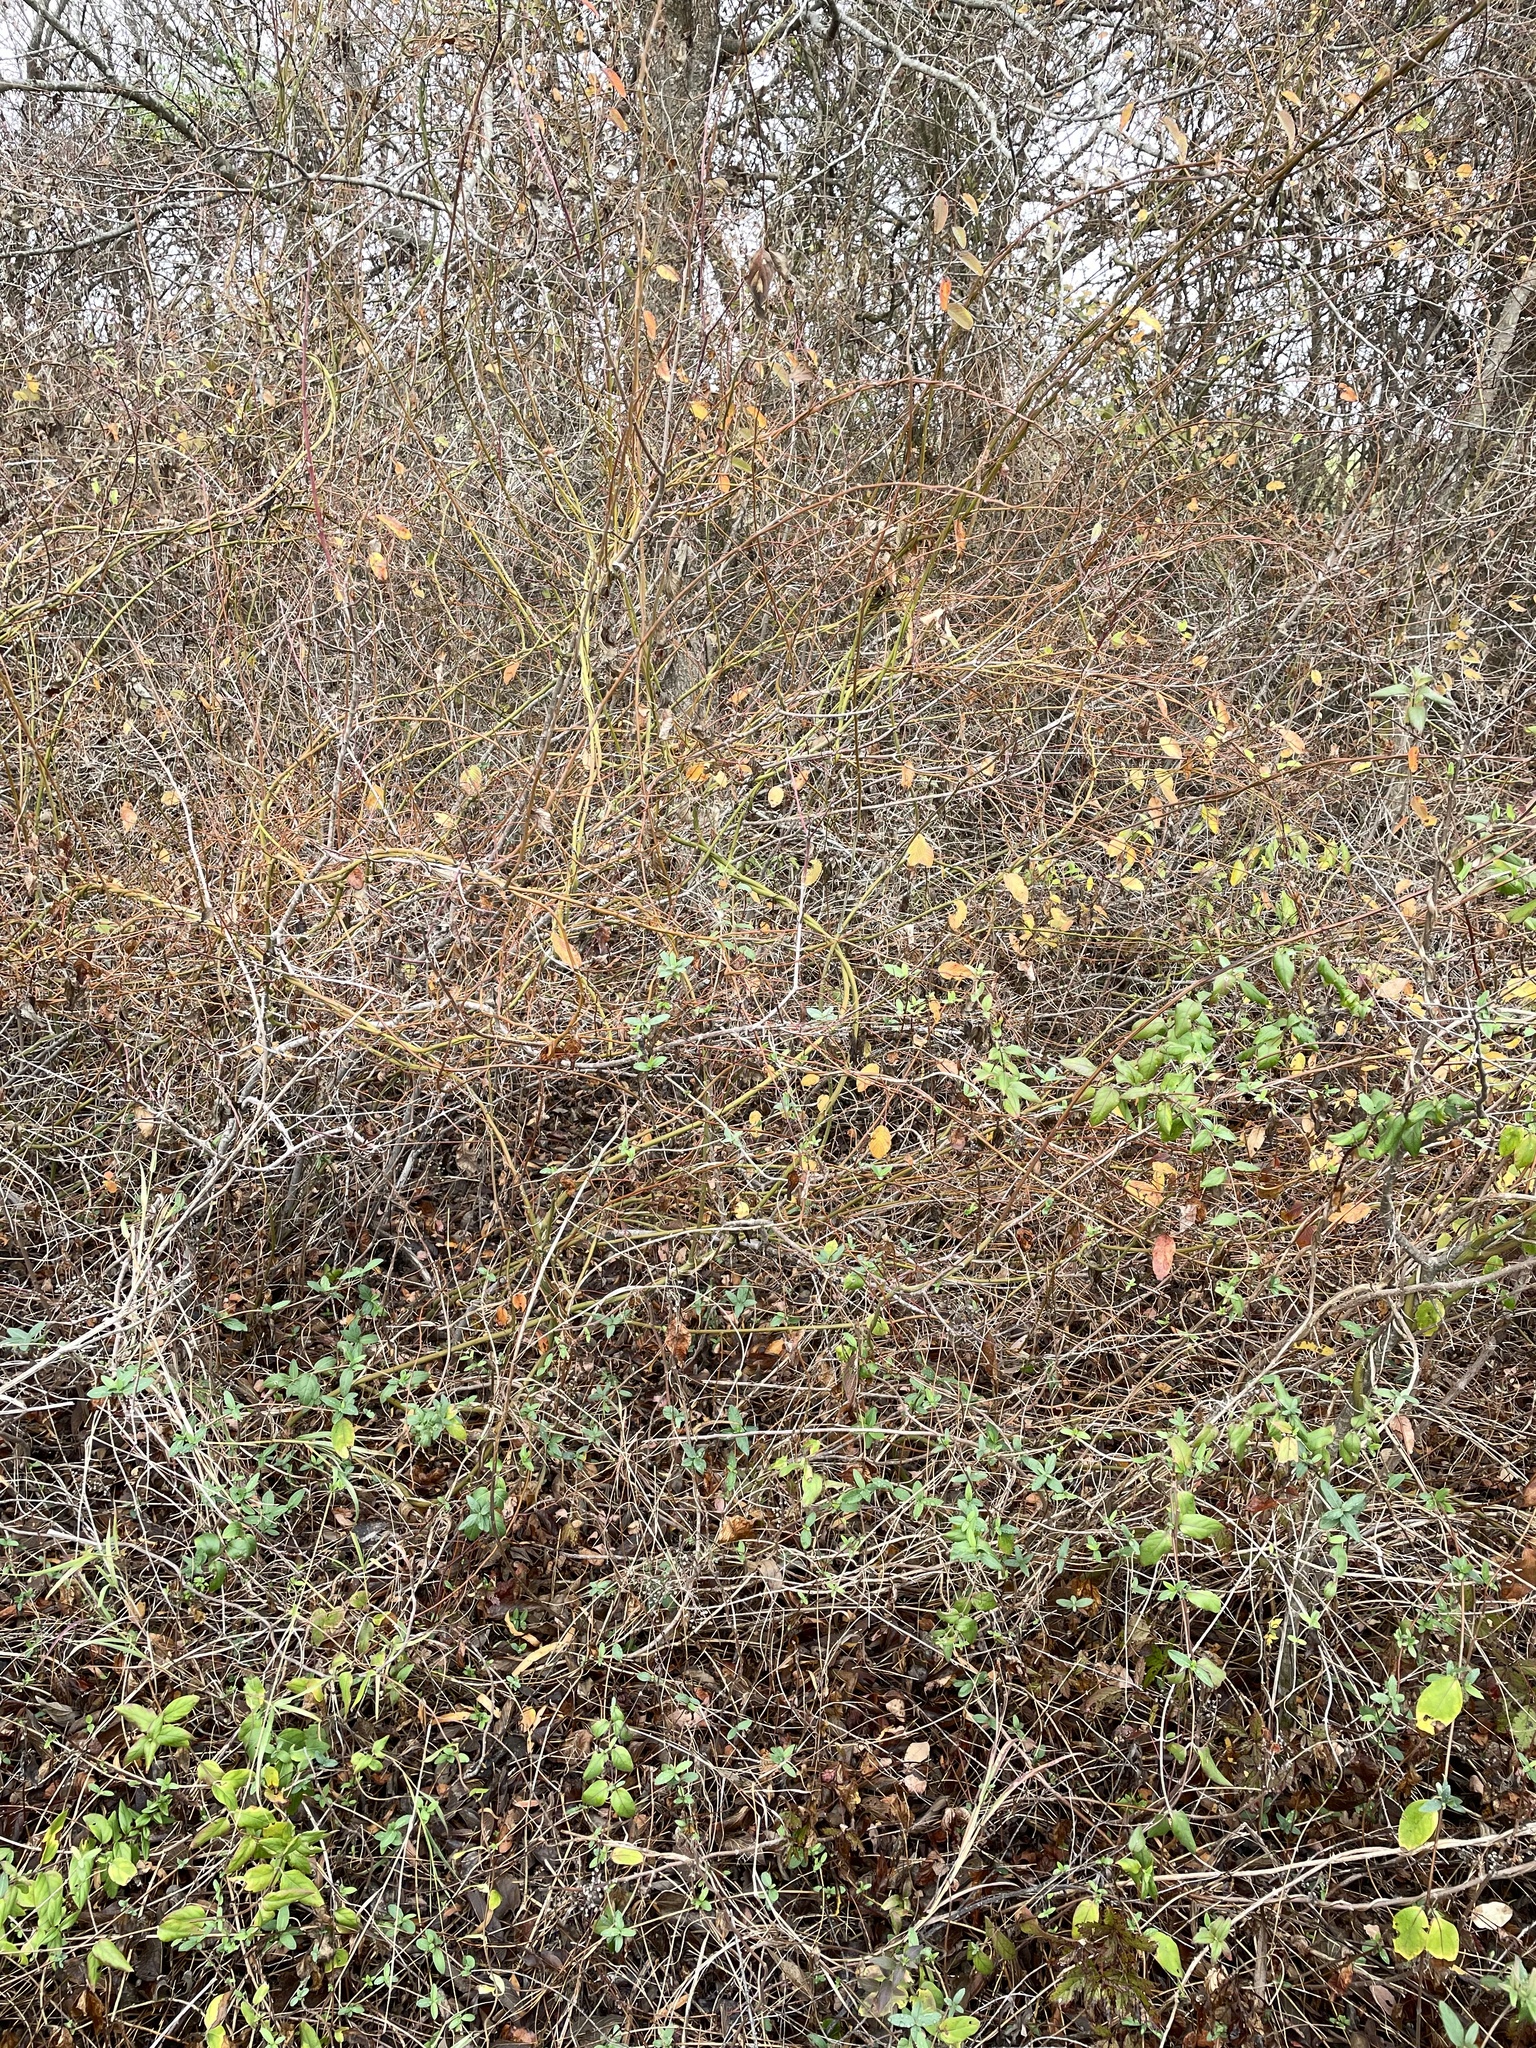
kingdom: Plantae
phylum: Tracheophyta
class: Magnoliopsida
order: Rosales
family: Rhamnaceae
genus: Berchemia
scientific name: Berchemia scandens
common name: Supplejack
